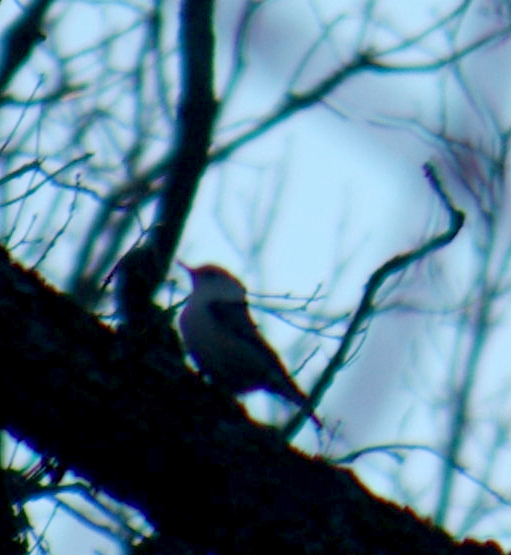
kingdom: Animalia
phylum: Chordata
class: Aves
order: Passeriformes
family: Sittidae
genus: Sitta
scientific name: Sitta carolinensis
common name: White-breasted nuthatch
